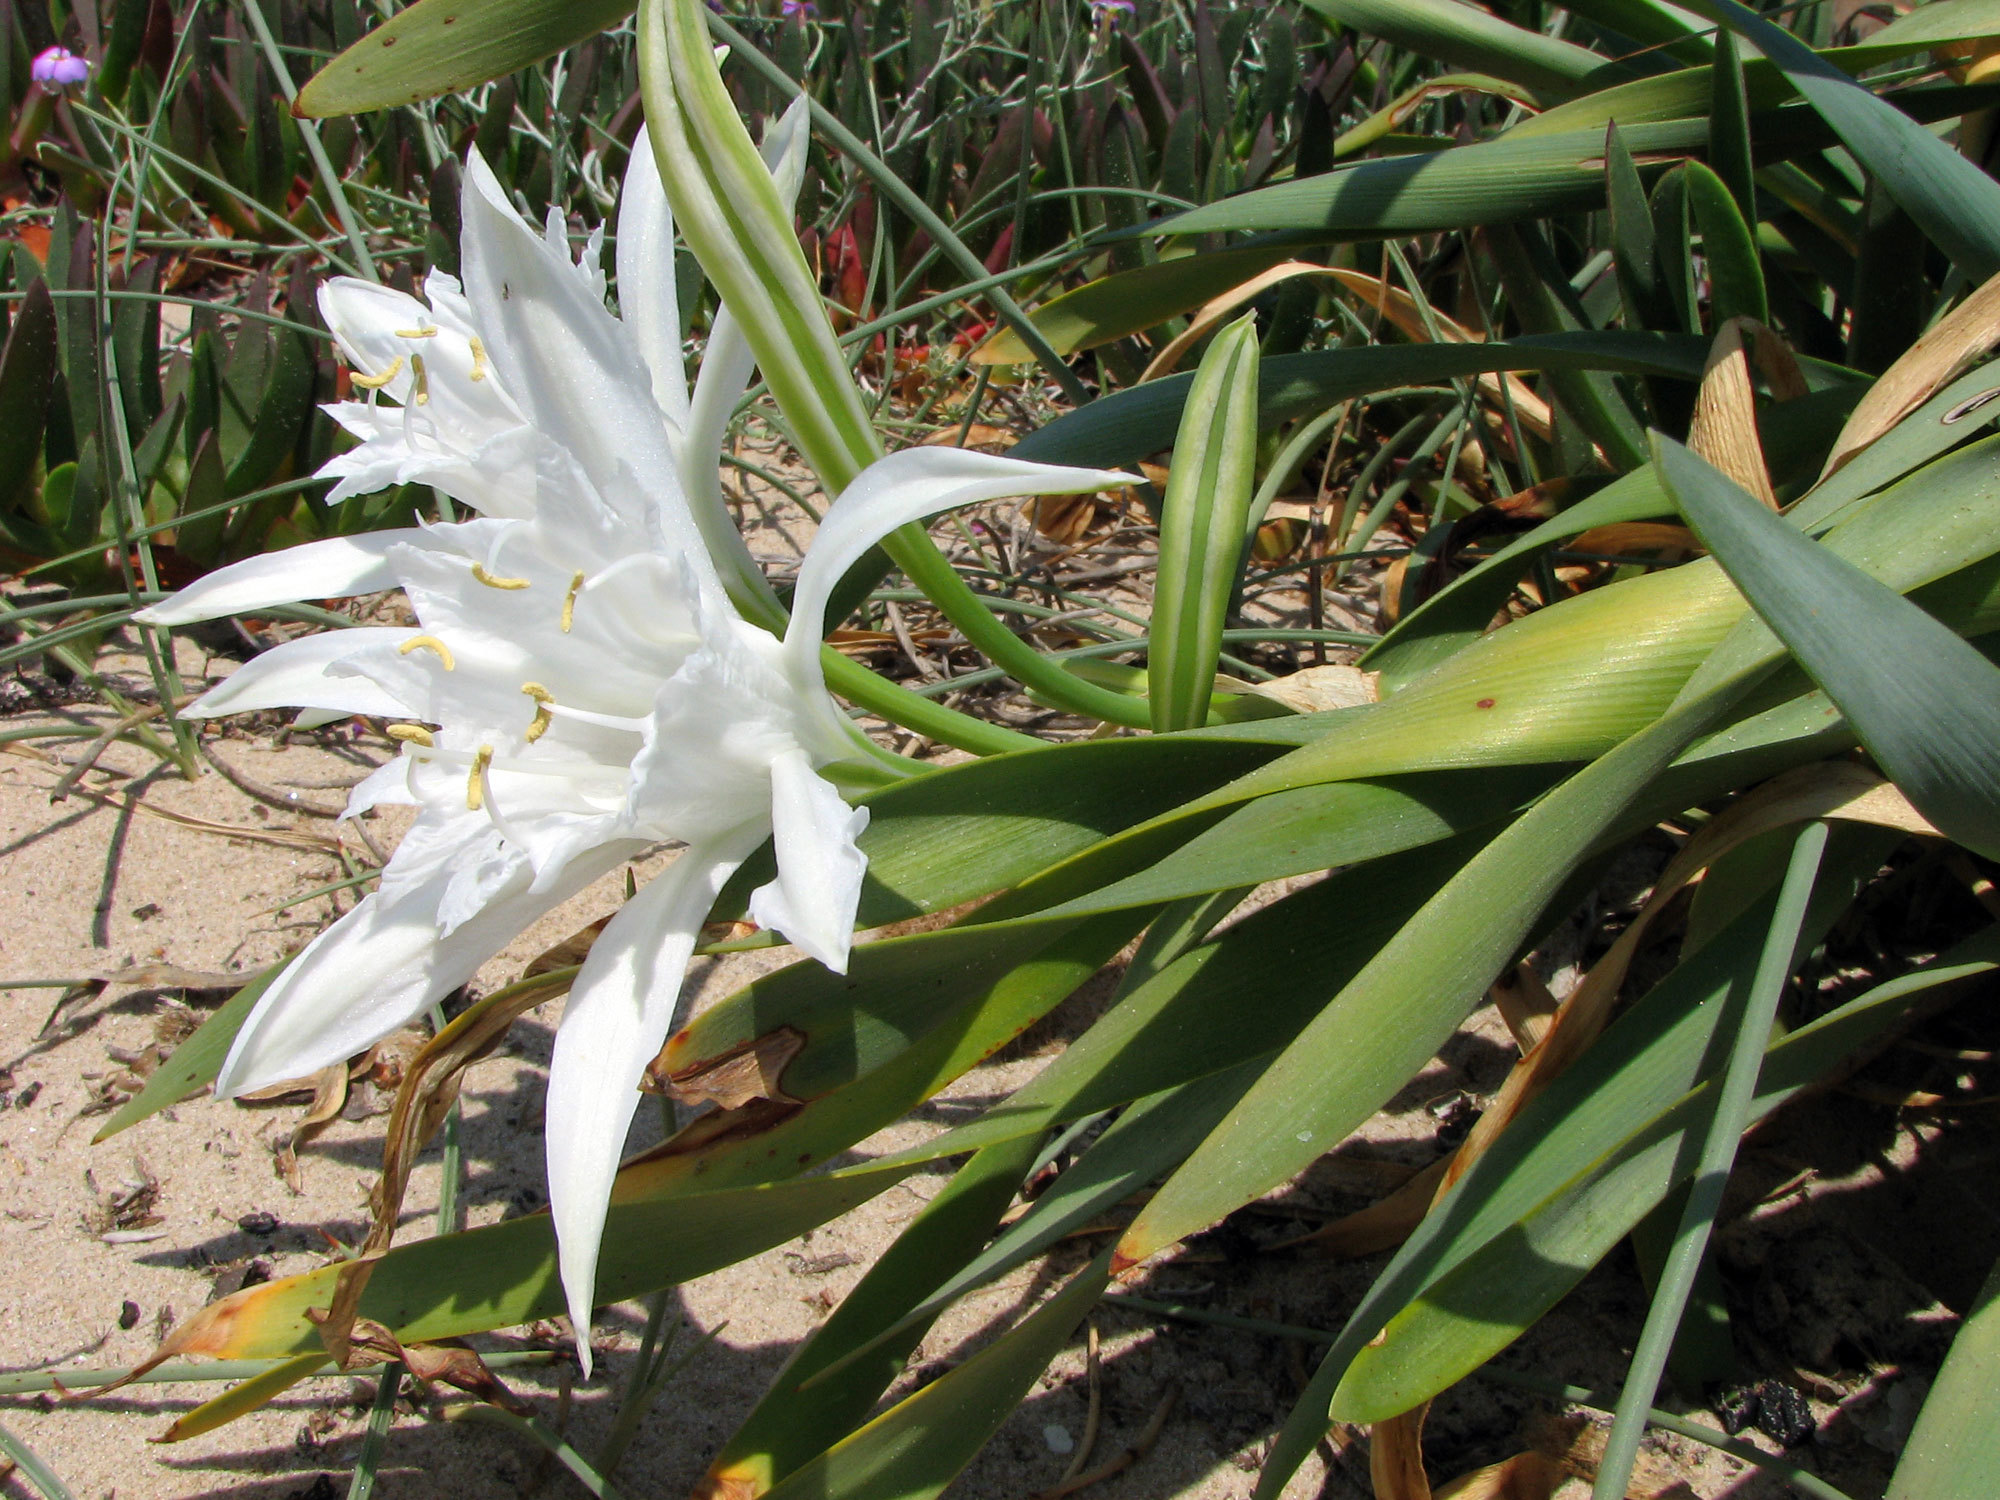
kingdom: Plantae
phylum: Tracheophyta
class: Liliopsida
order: Asparagales
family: Amaryllidaceae
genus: Pancratium
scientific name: Pancratium maritimum
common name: Sea-daffodil
